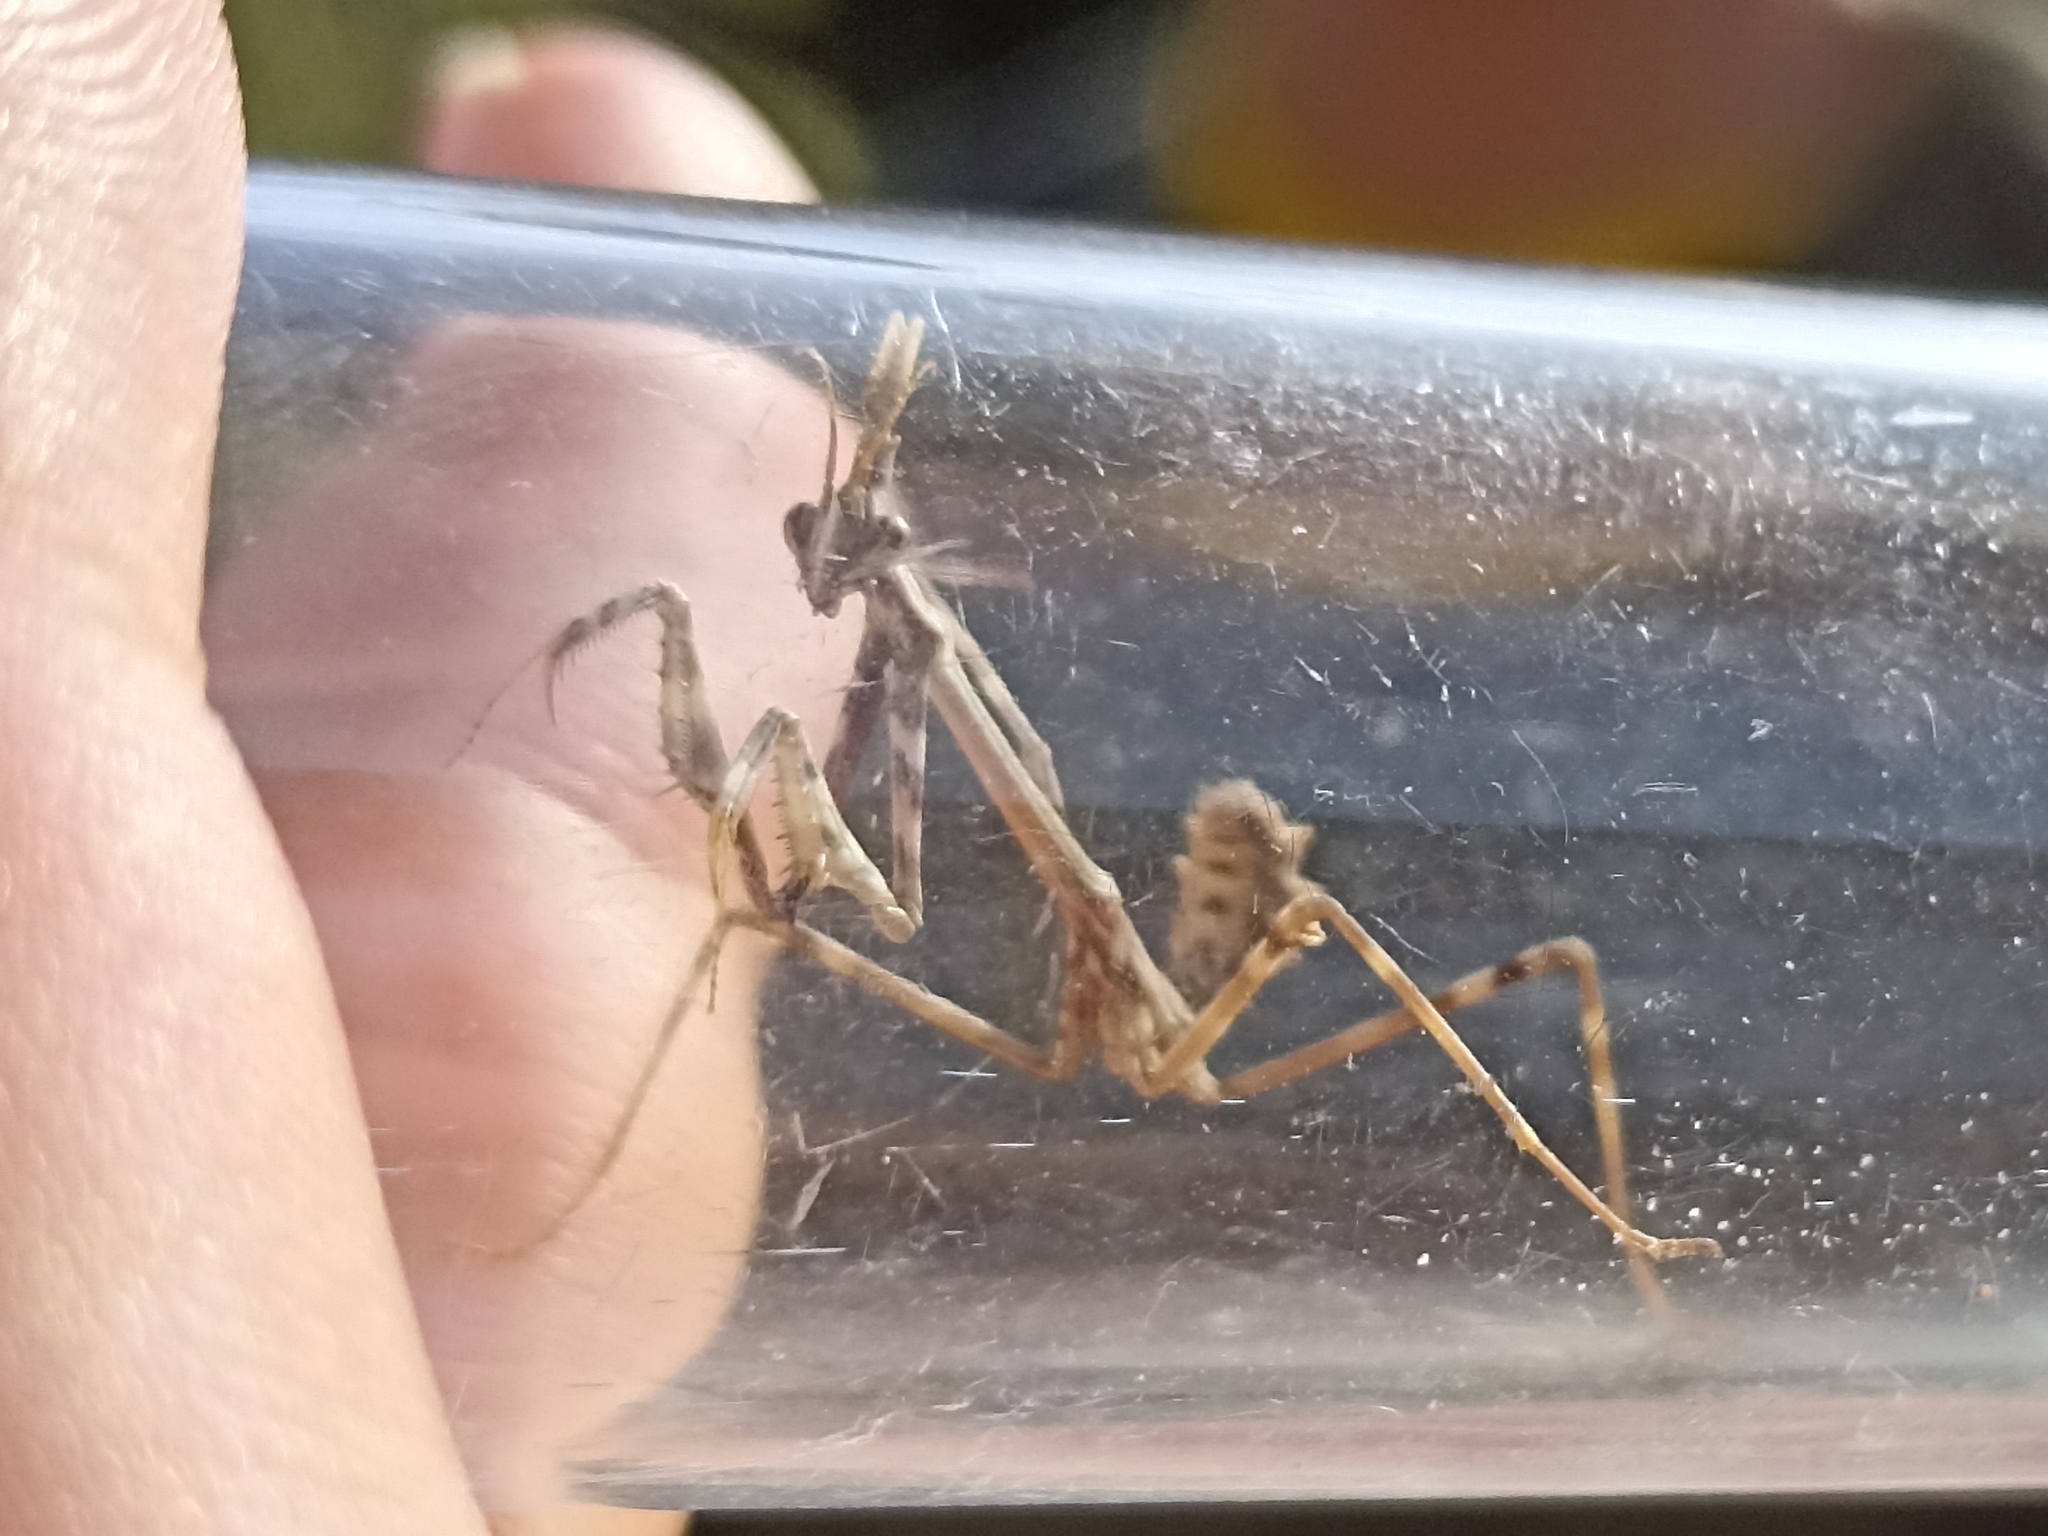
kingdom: Animalia
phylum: Arthropoda
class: Insecta
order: Mantodea
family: Empusidae
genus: Empusa
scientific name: Empusa pennata
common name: Conehead mantis
